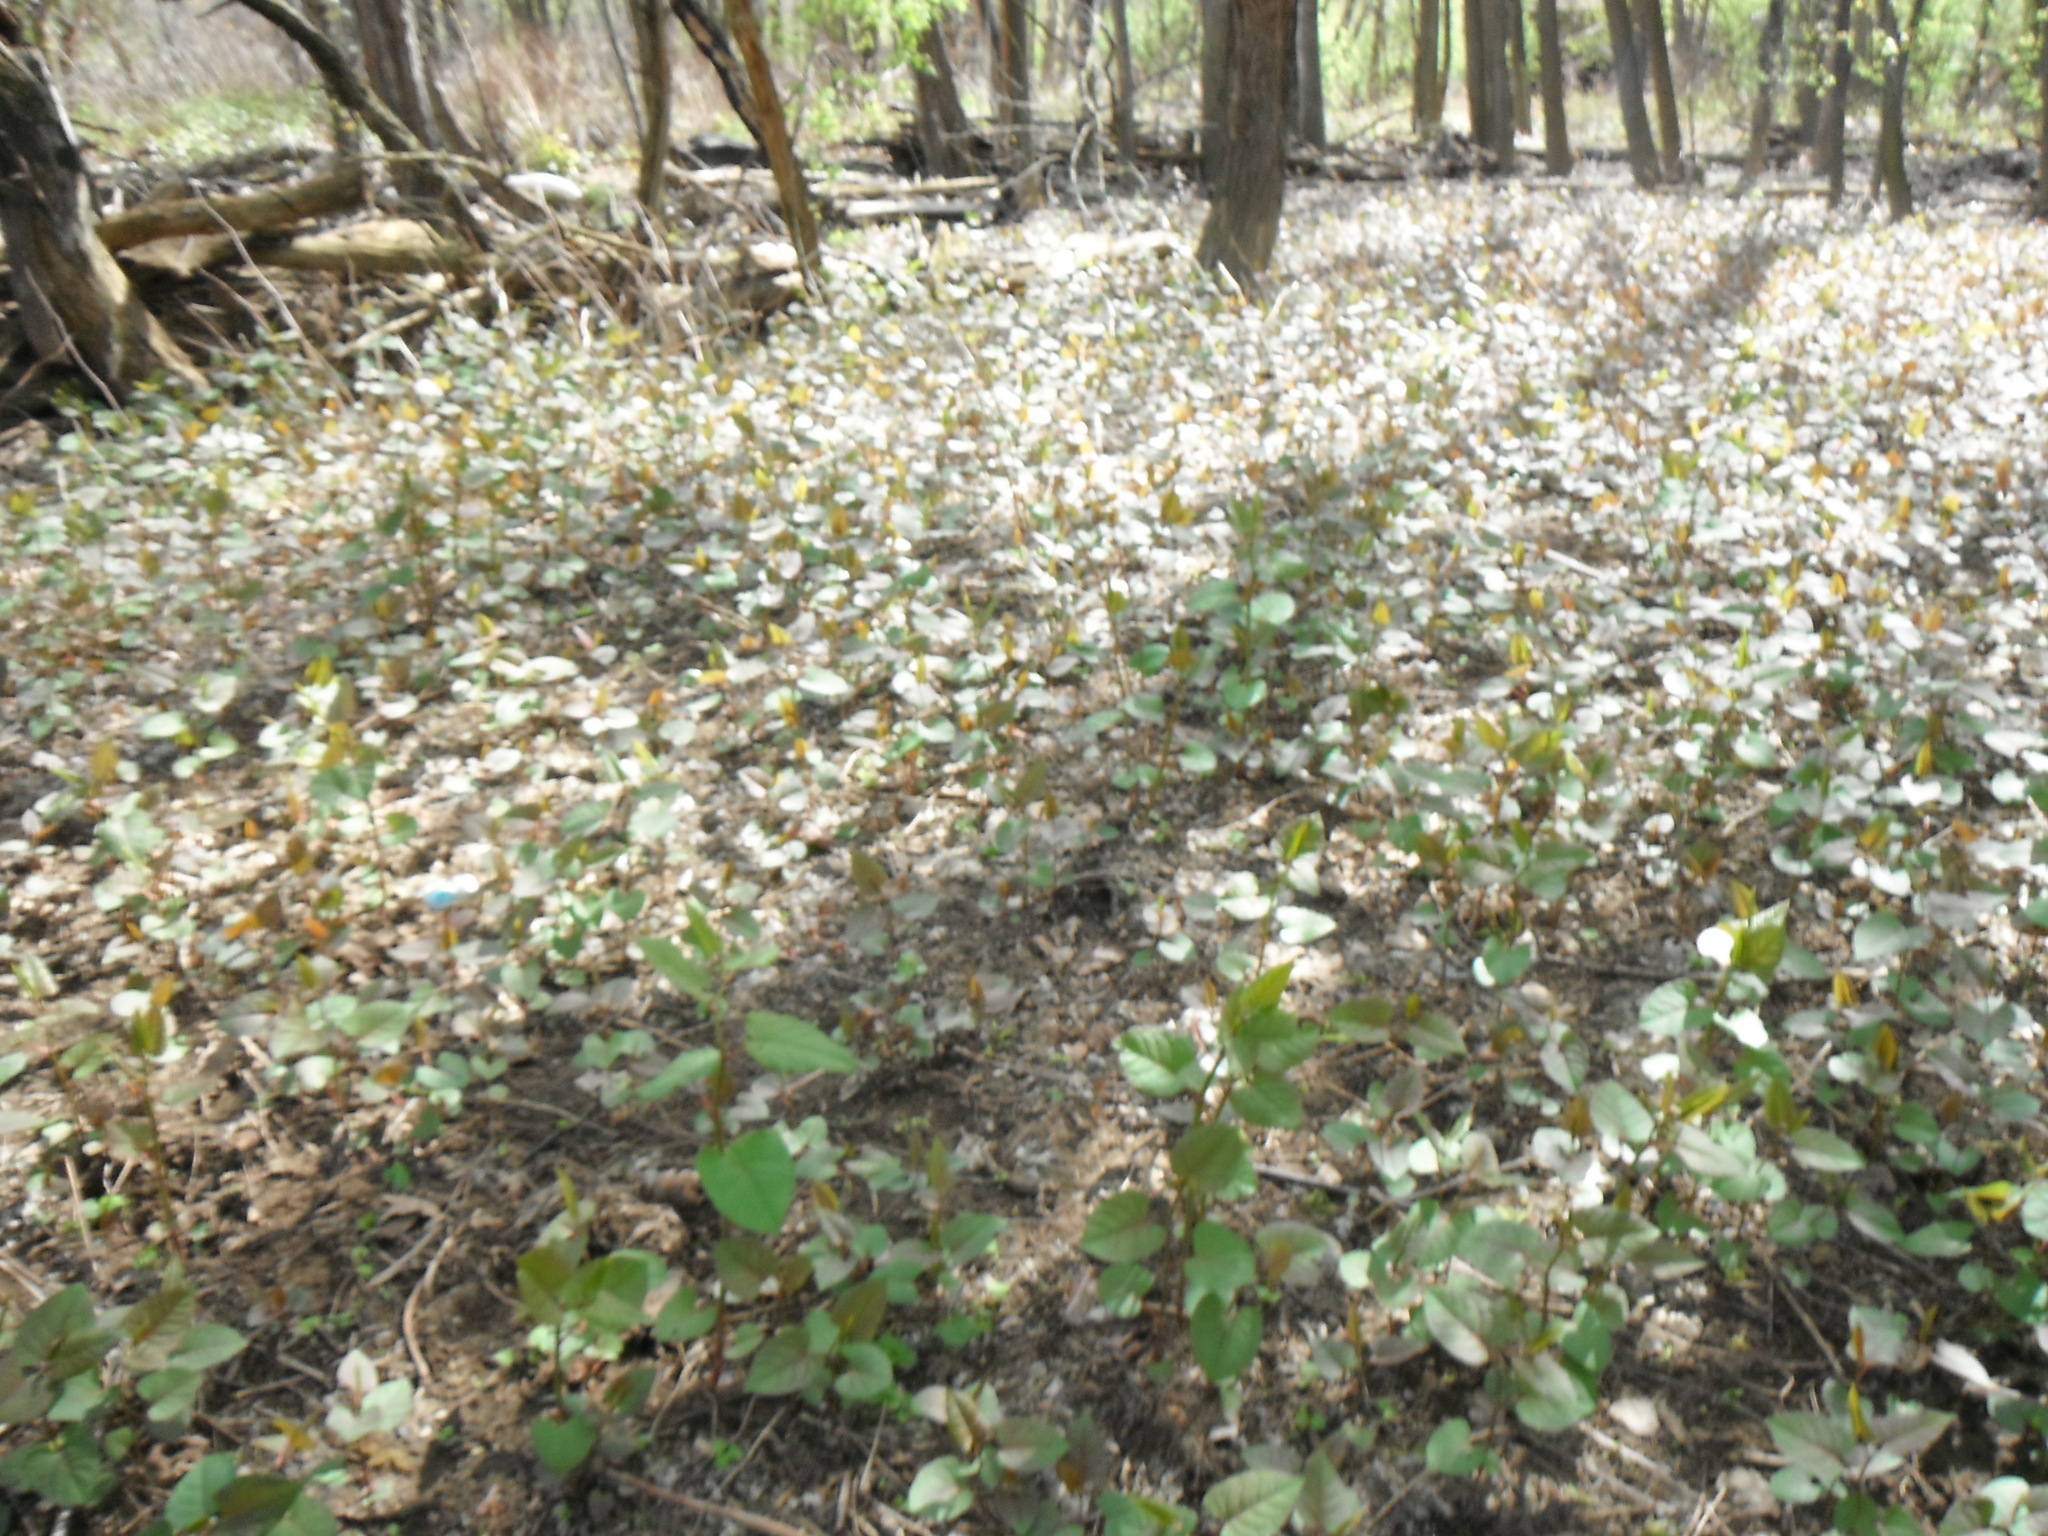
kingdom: Plantae
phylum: Tracheophyta
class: Magnoliopsida
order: Caryophyllales
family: Polygonaceae
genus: Reynoutria
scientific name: Reynoutria japonica
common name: Japanese knotweed
